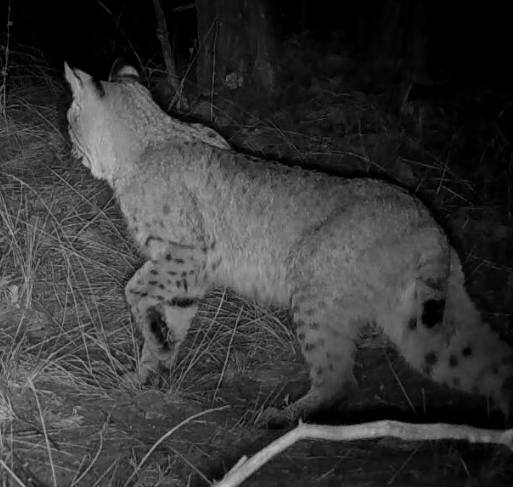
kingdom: Animalia
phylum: Chordata
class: Mammalia
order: Carnivora
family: Felidae
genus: Lynx
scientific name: Lynx rufus
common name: Bobcat
